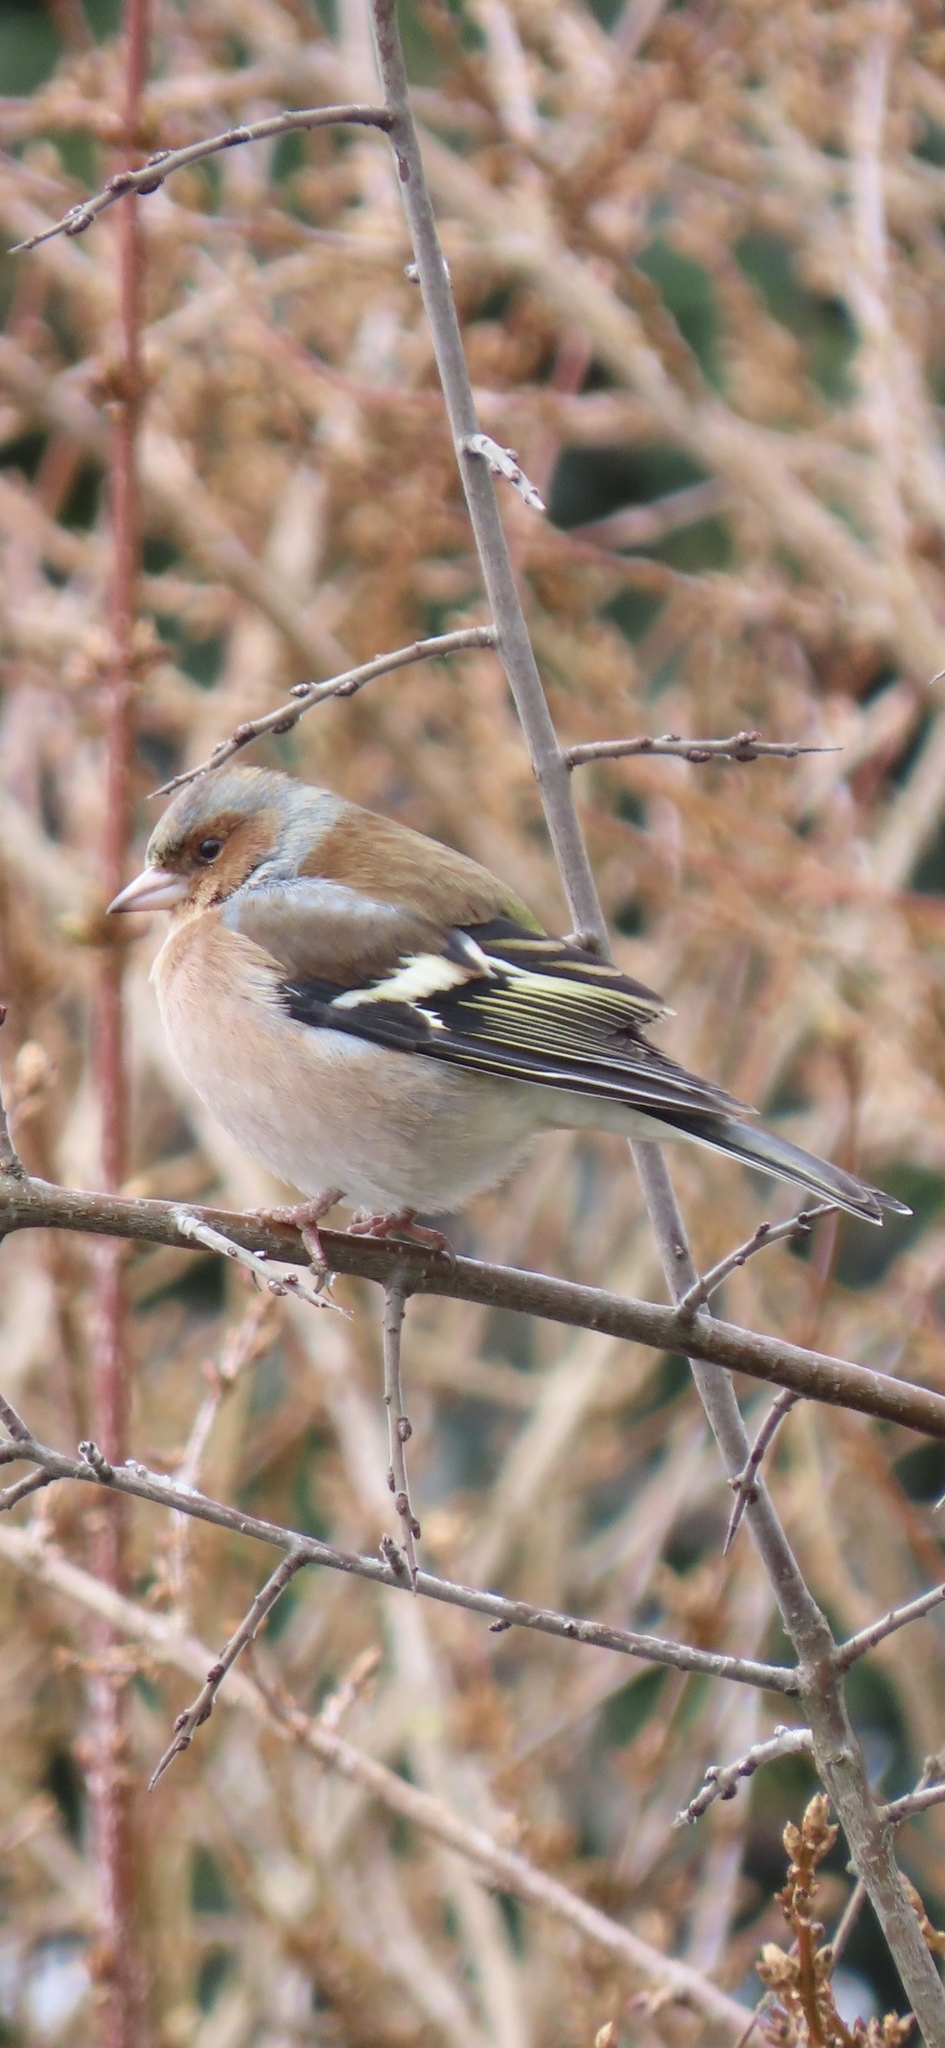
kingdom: Animalia
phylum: Chordata
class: Aves
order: Passeriformes
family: Fringillidae
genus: Fringilla
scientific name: Fringilla coelebs
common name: Common chaffinch
